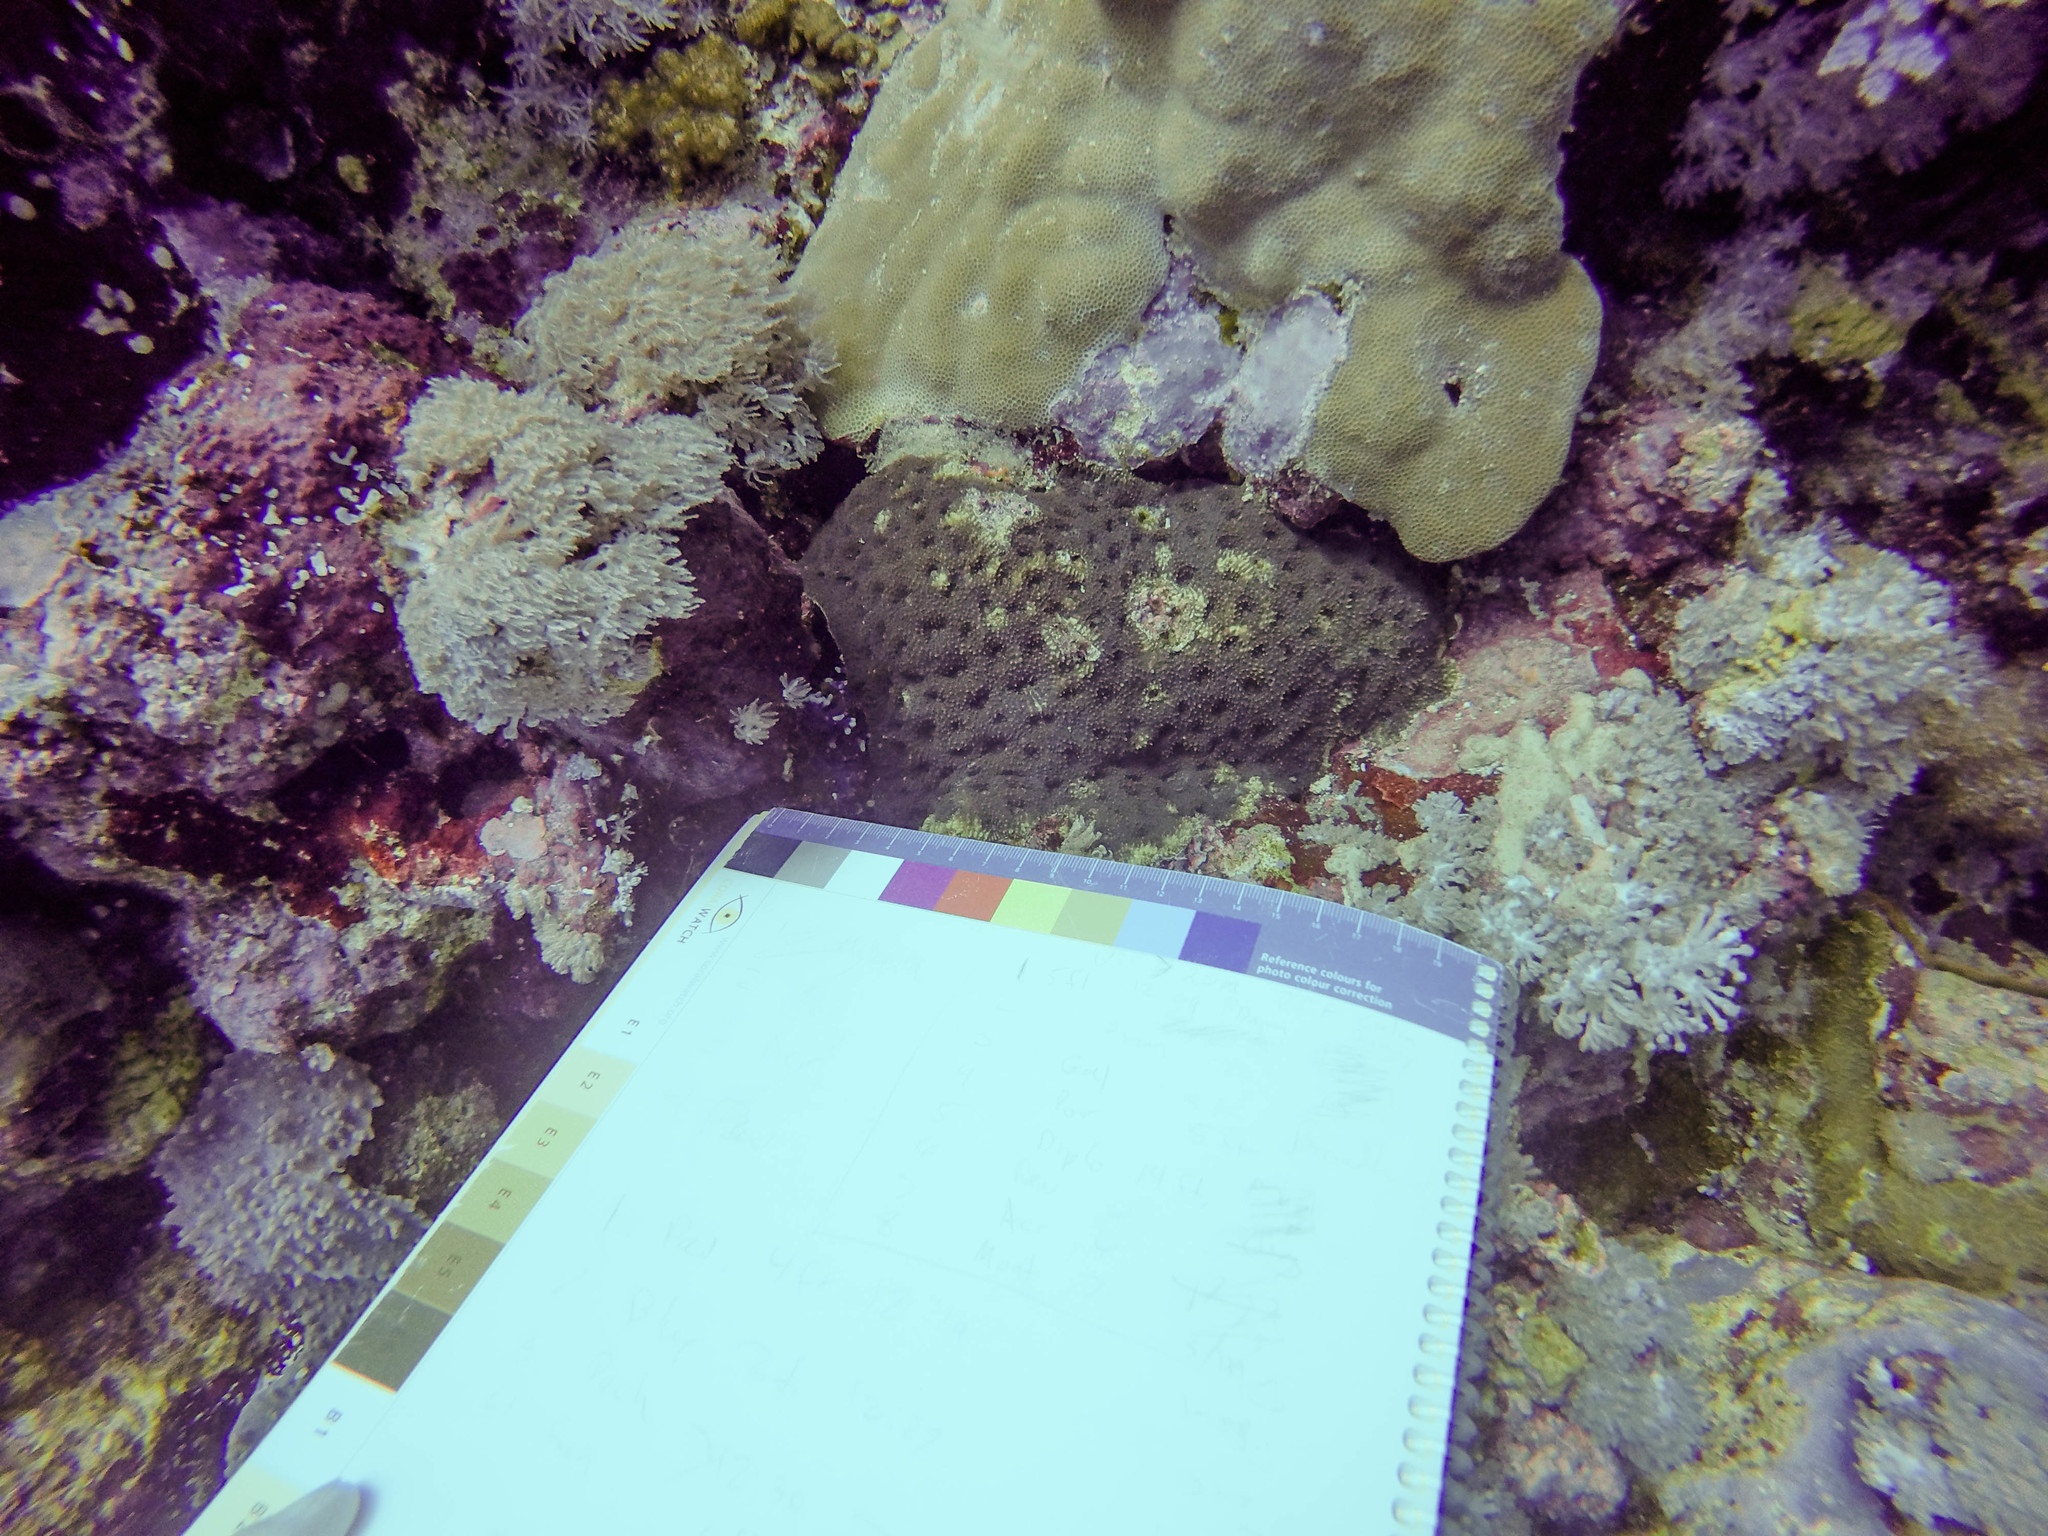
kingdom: Animalia
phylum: Cnidaria
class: Anthozoa
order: Scleractinia
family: Lobophylliidae
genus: Acanthastrea
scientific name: Acanthastrea echinata
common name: Starry cup coral
